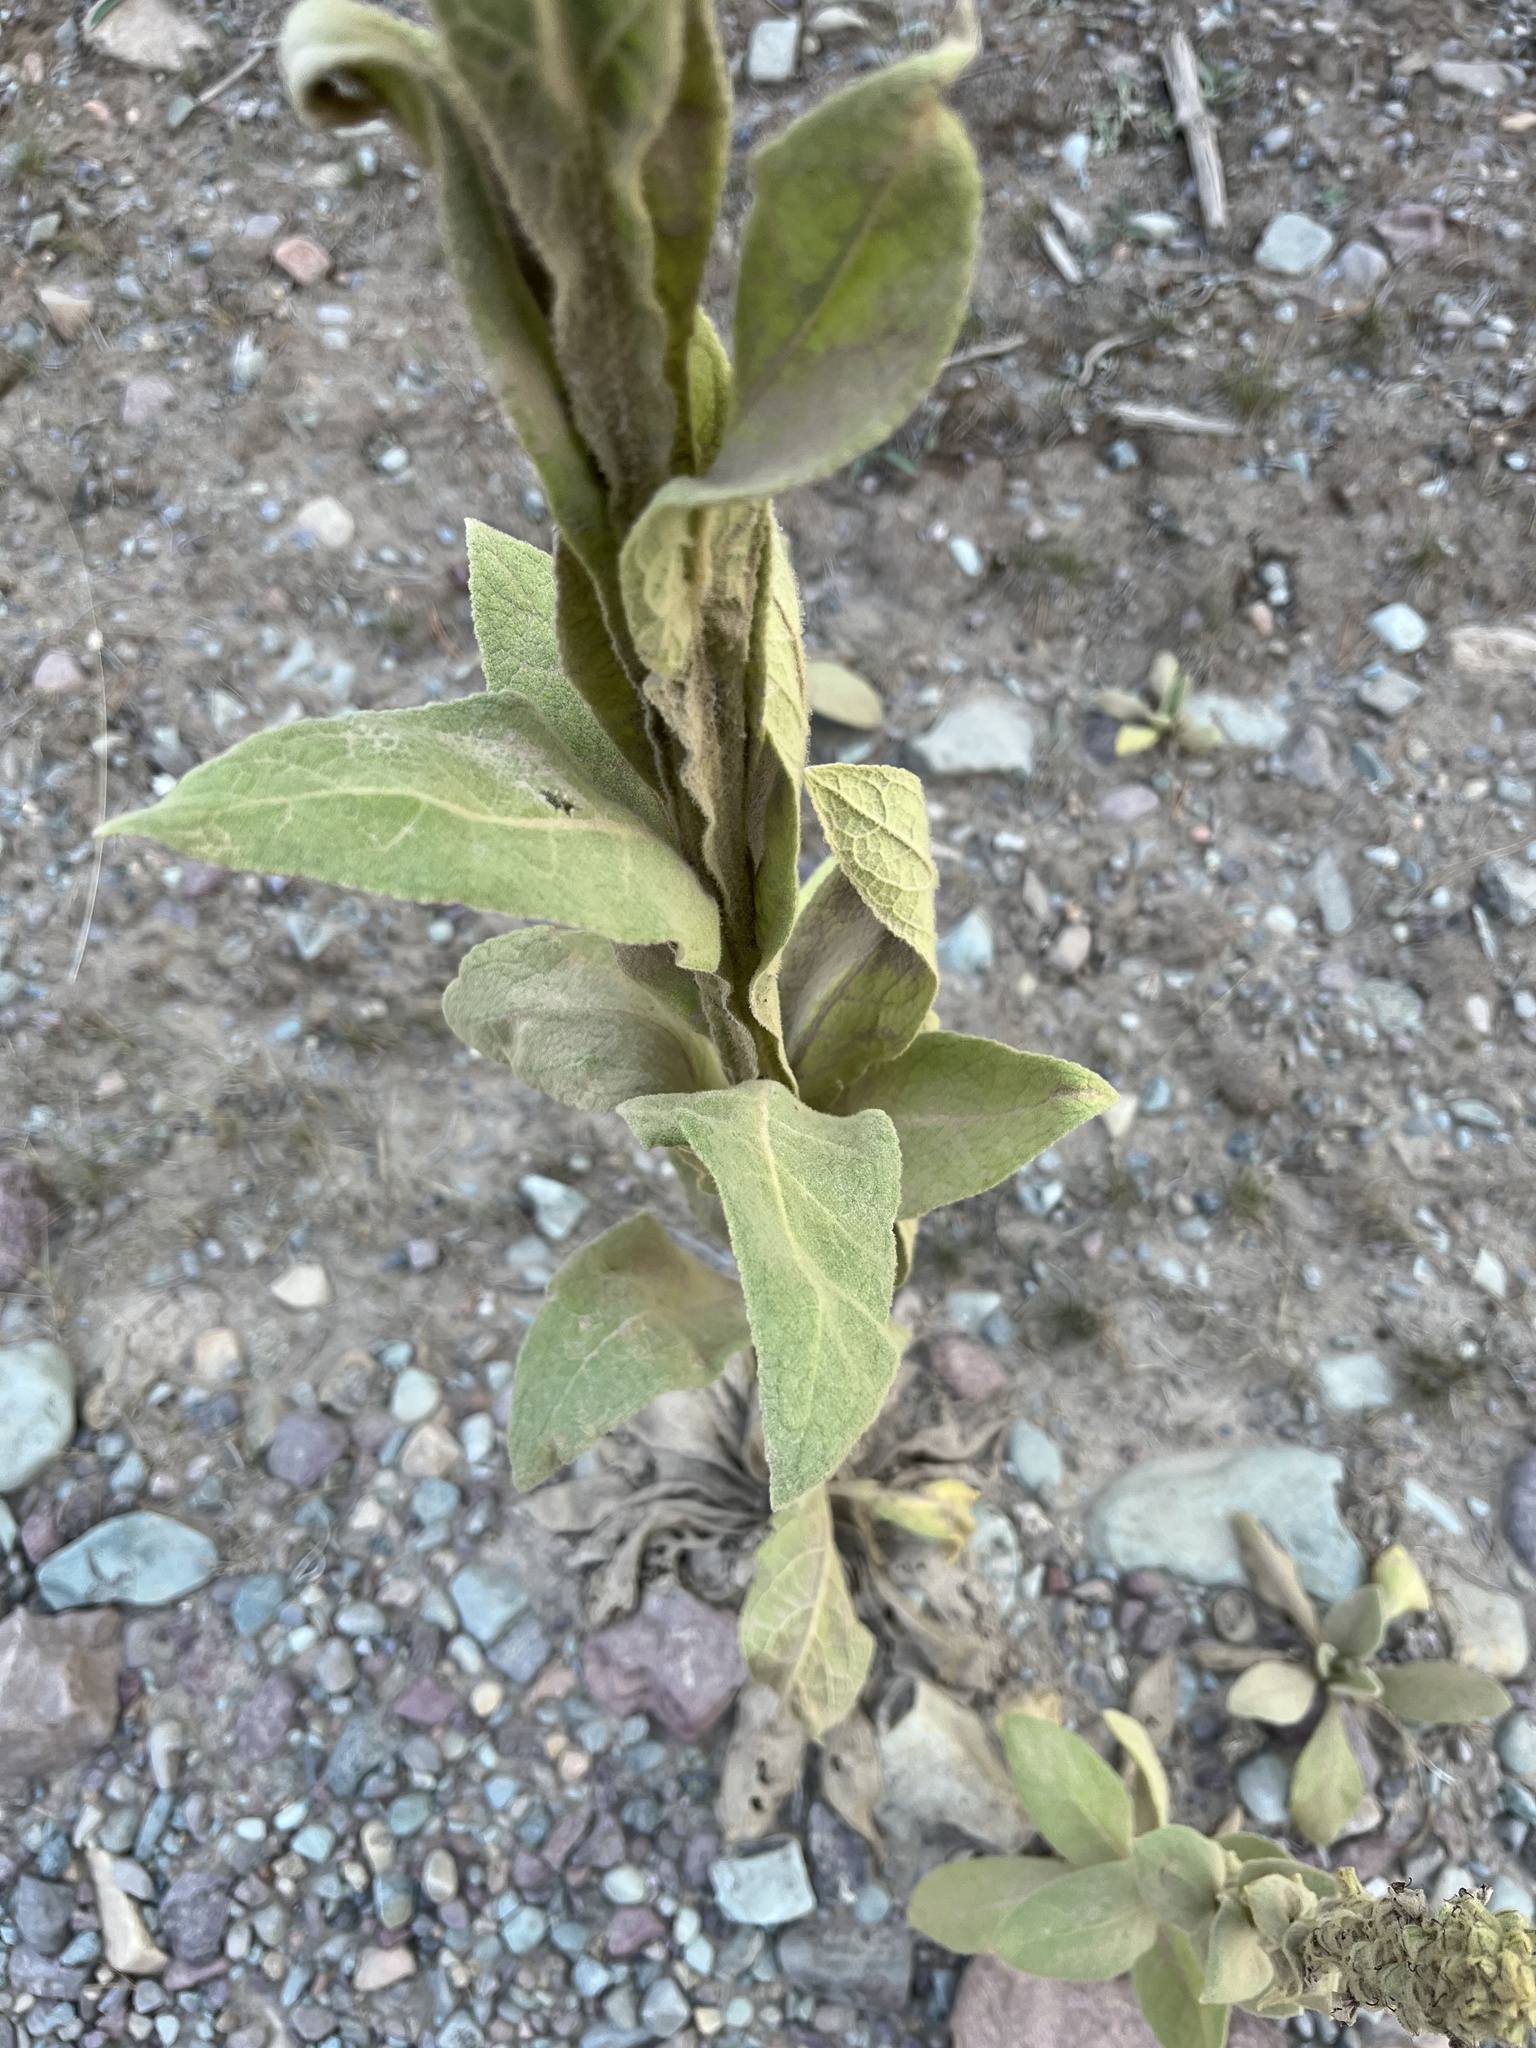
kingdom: Plantae
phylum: Tracheophyta
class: Magnoliopsida
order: Lamiales
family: Scrophulariaceae
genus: Verbascum
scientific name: Verbascum thapsus
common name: Common mullein
